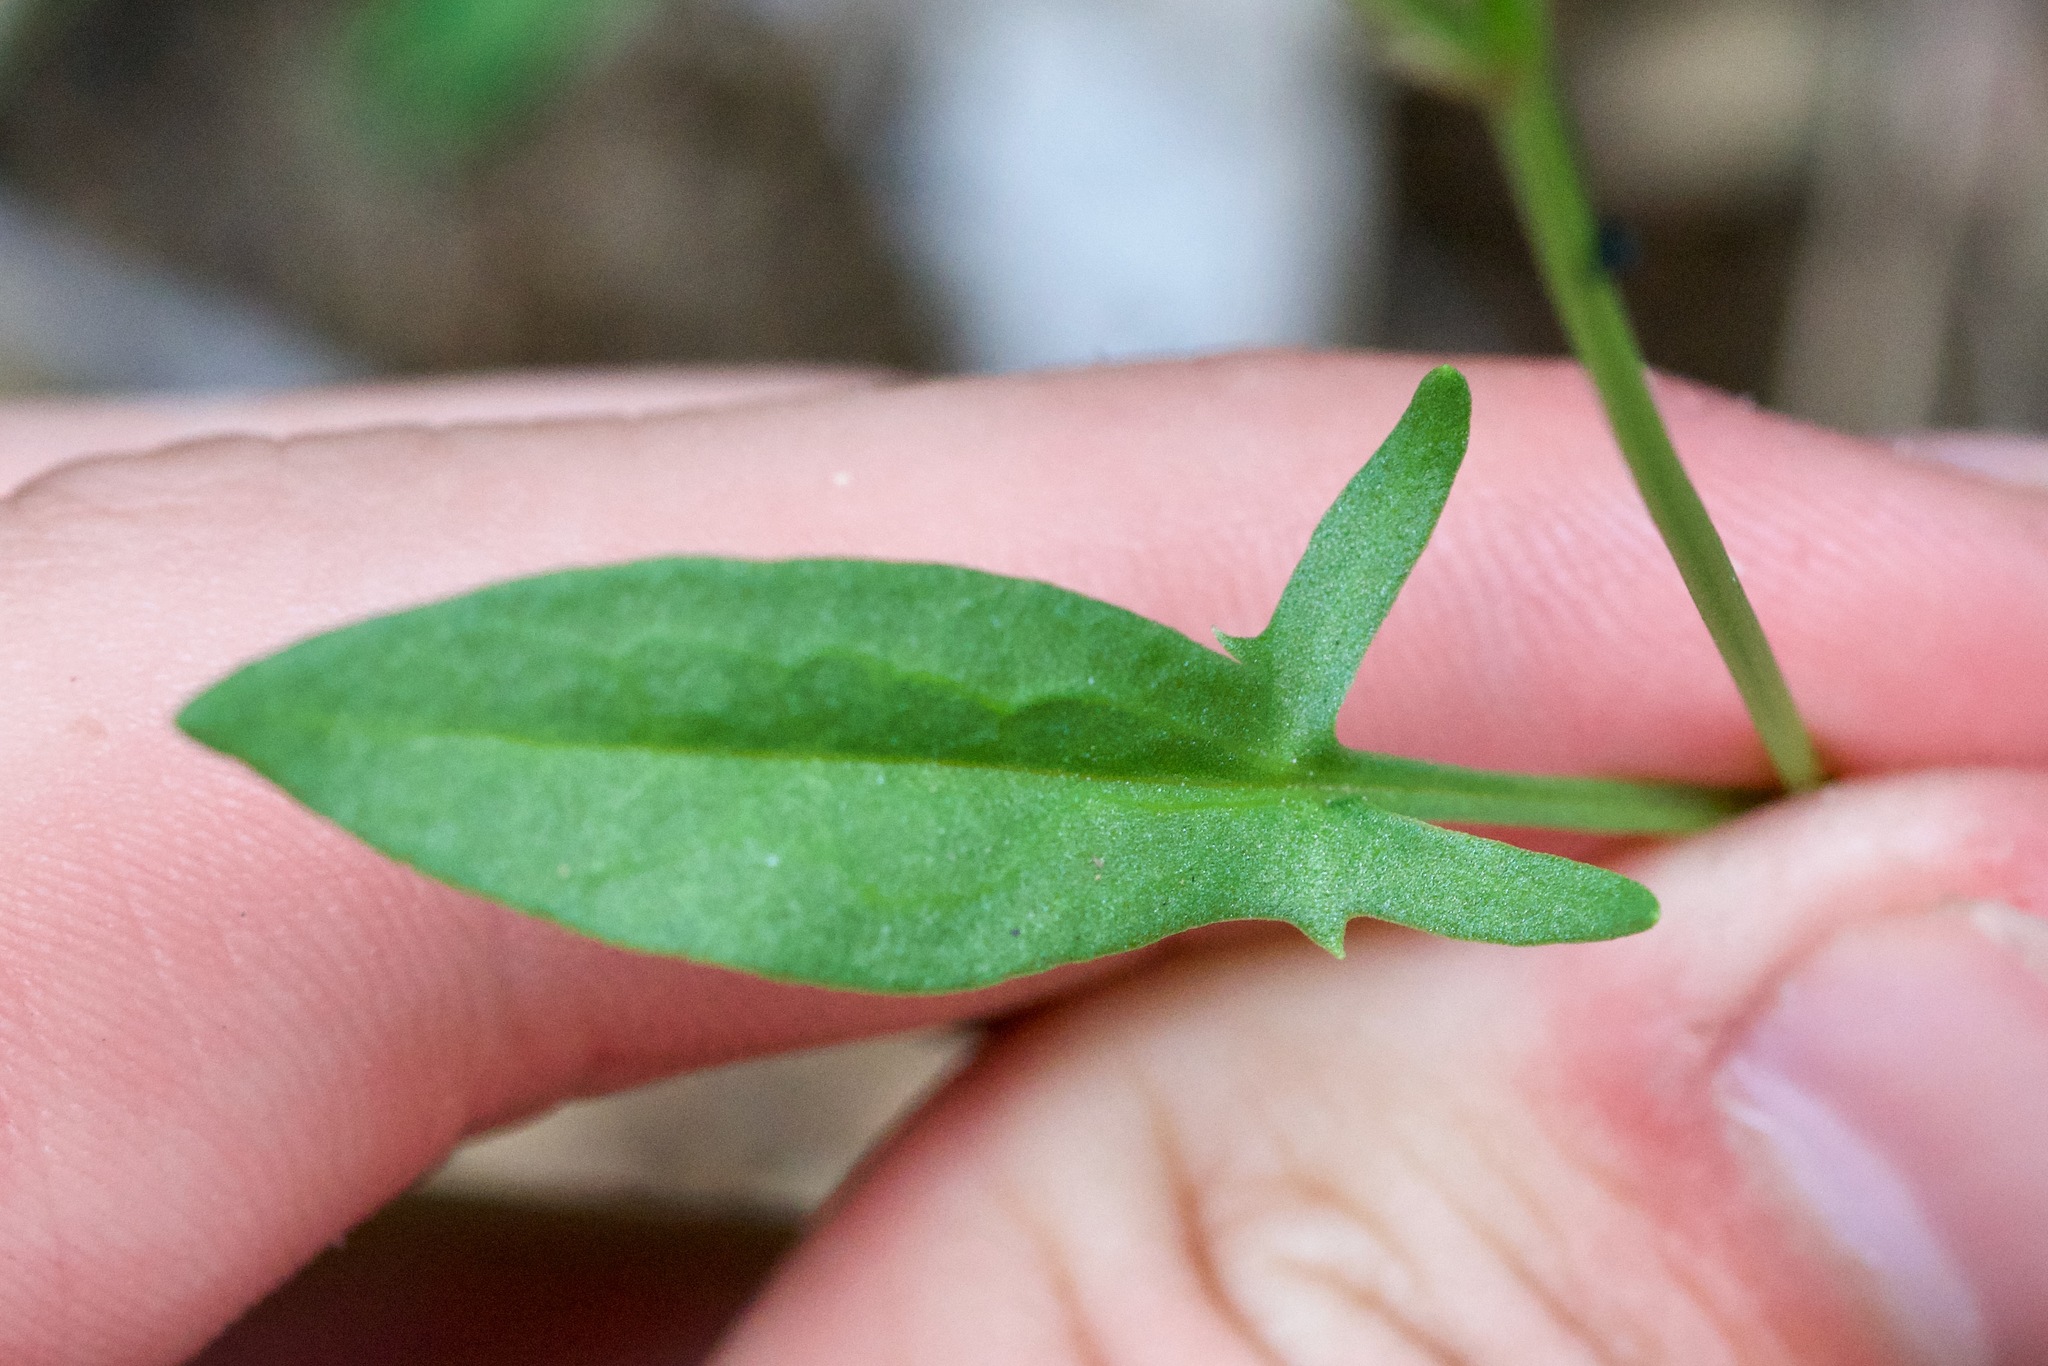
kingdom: Plantae
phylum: Tracheophyta
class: Magnoliopsida
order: Caryophyllales
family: Polygonaceae
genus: Rumex
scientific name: Rumex acetosella
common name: Common sheep sorrel
